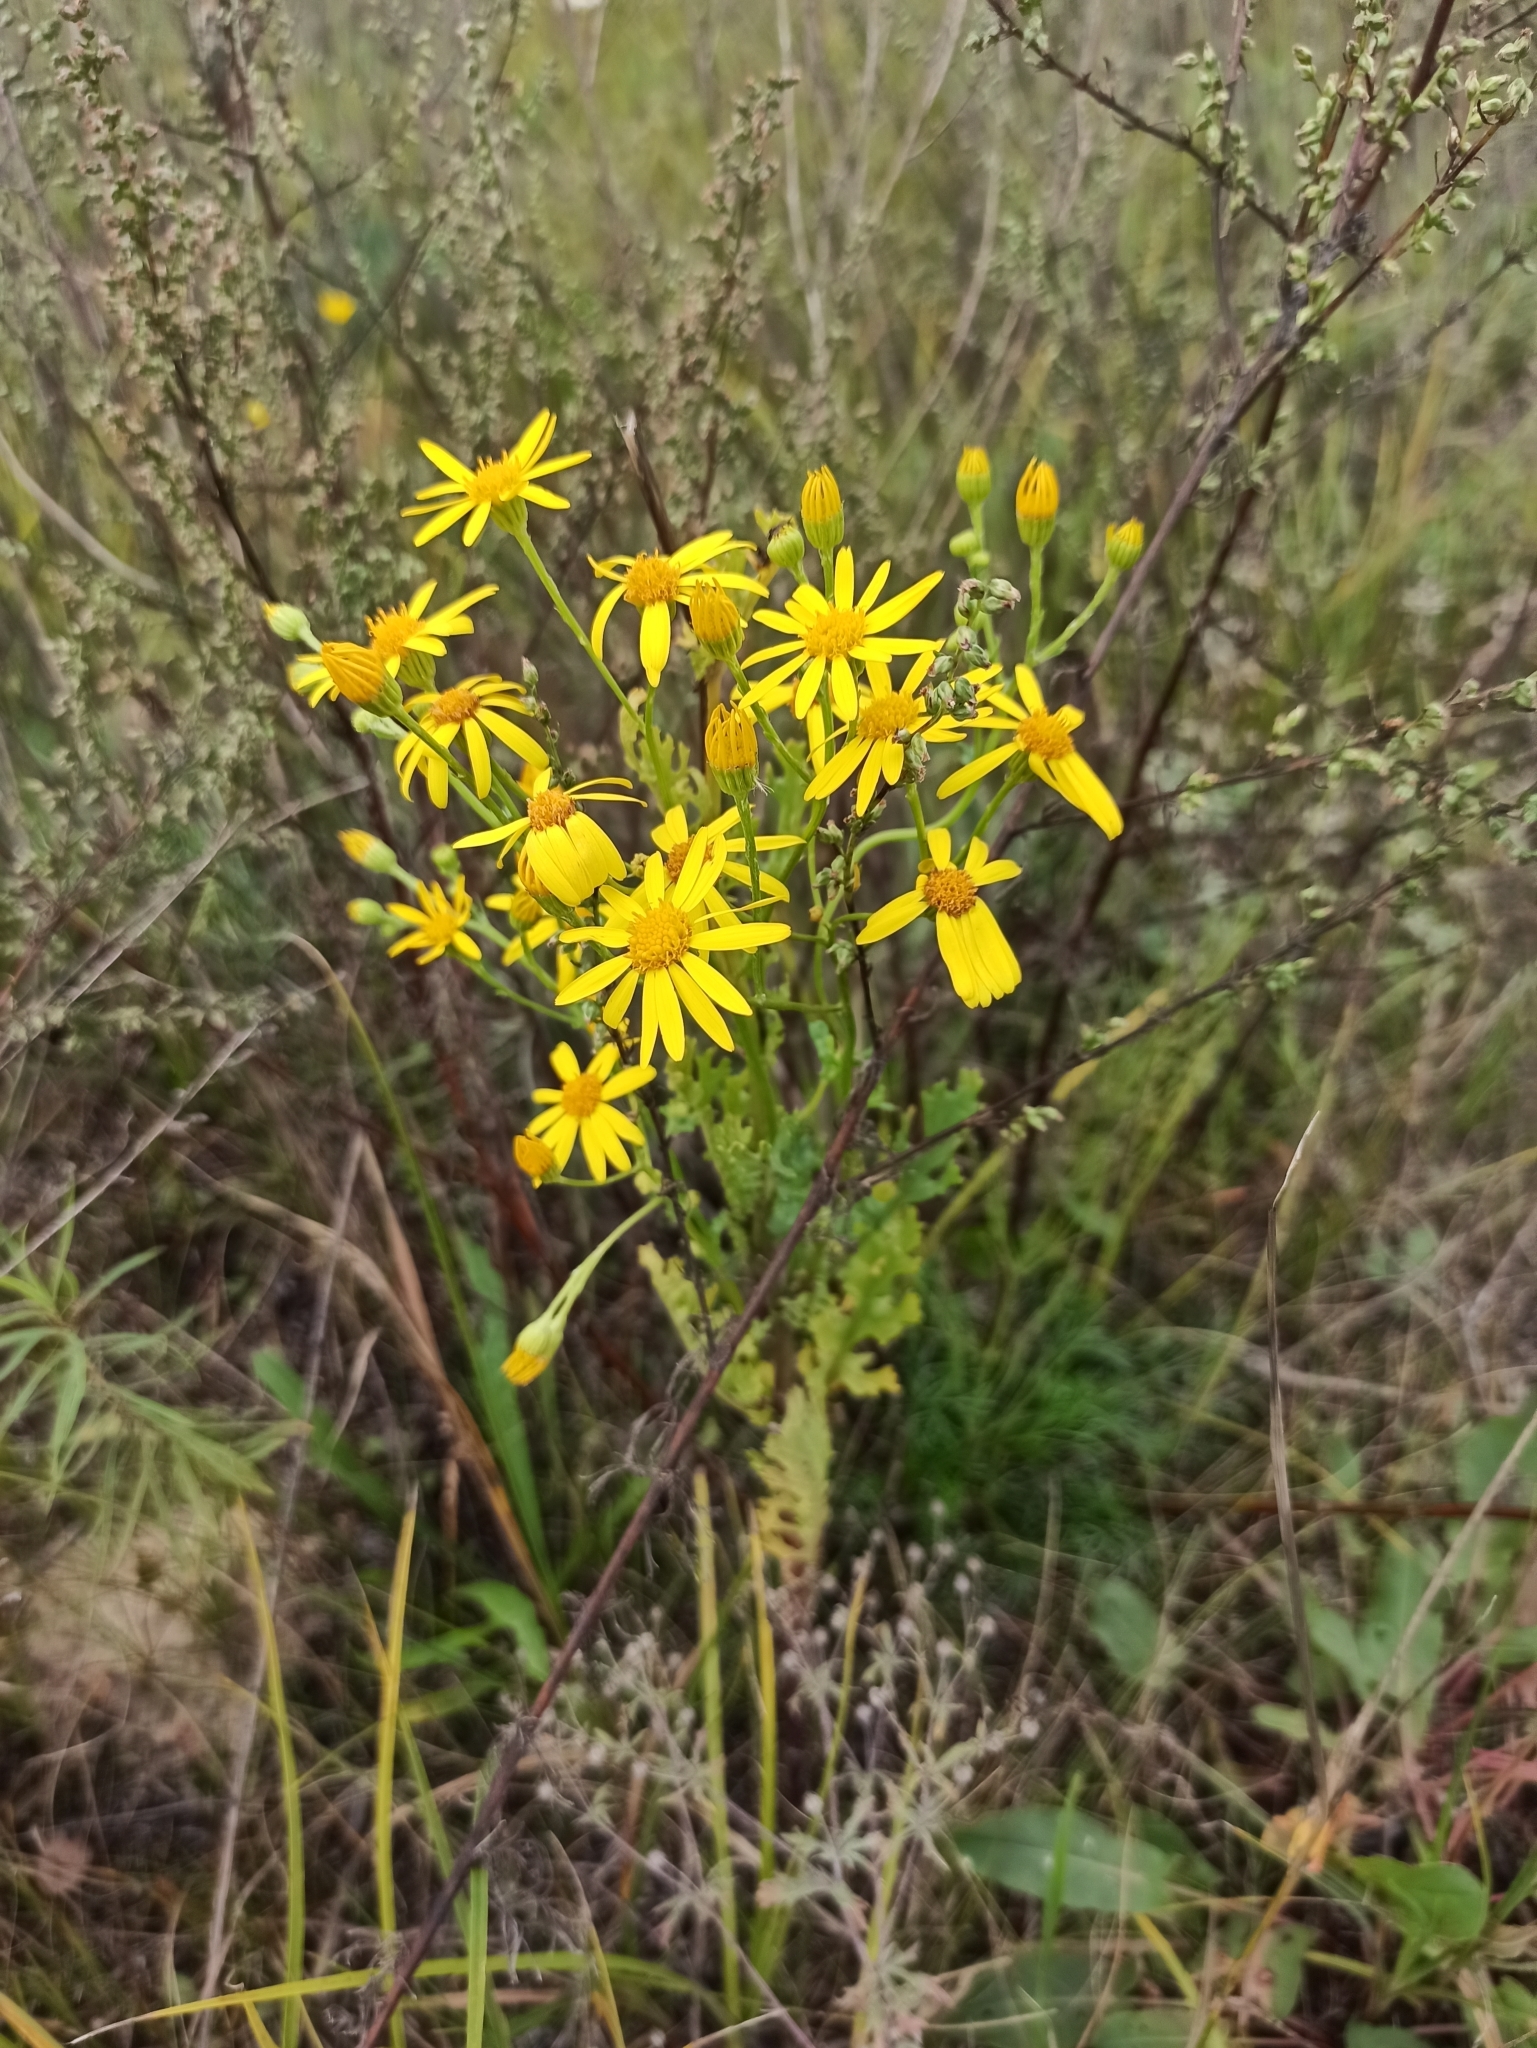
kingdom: Plantae
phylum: Tracheophyta
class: Magnoliopsida
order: Asterales
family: Asteraceae
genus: Jacobaea
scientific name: Jacobaea vulgaris
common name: Stinking willie
